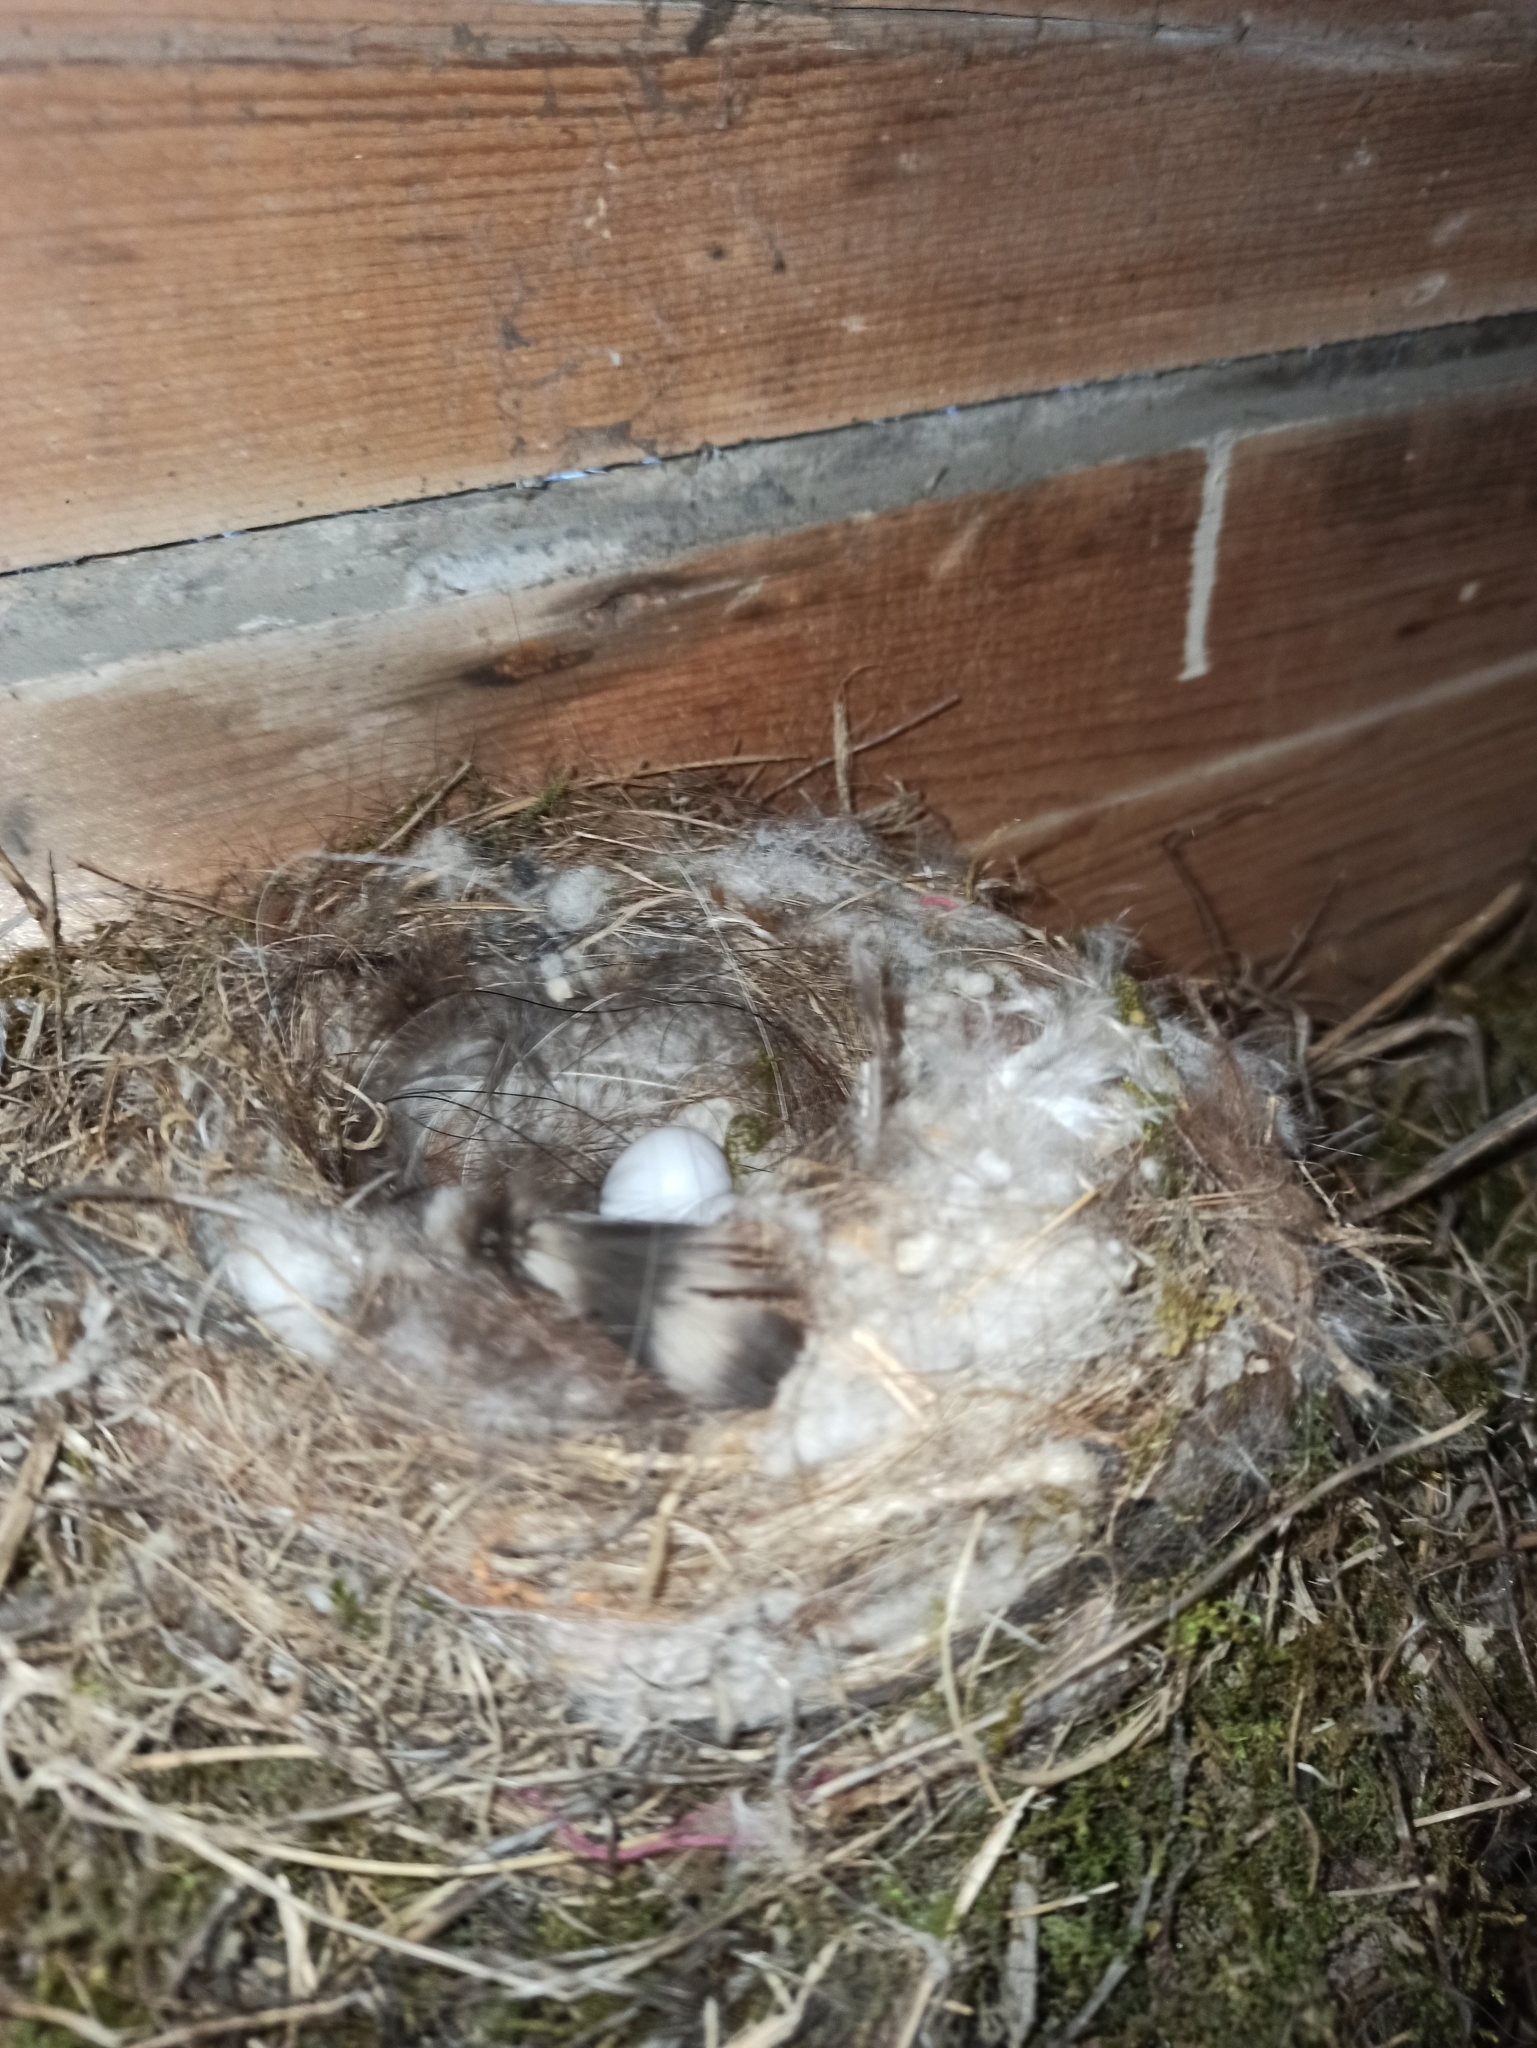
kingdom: Animalia
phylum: Chordata
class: Aves
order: Passeriformes
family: Muscicapidae
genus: Phoenicurus
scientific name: Phoenicurus ochruros
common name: Black redstart
